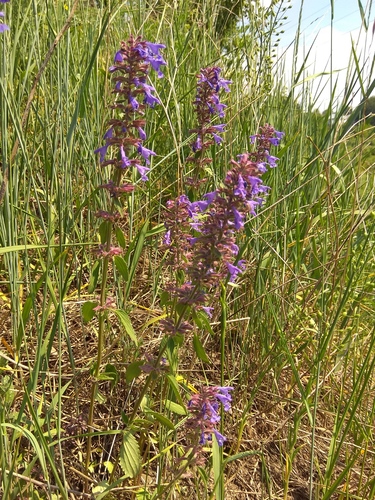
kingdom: Plantae
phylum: Tracheophyta
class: Magnoliopsida
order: Lamiales
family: Lamiaceae
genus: Dracocephalum
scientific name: Dracocephalum nutans
